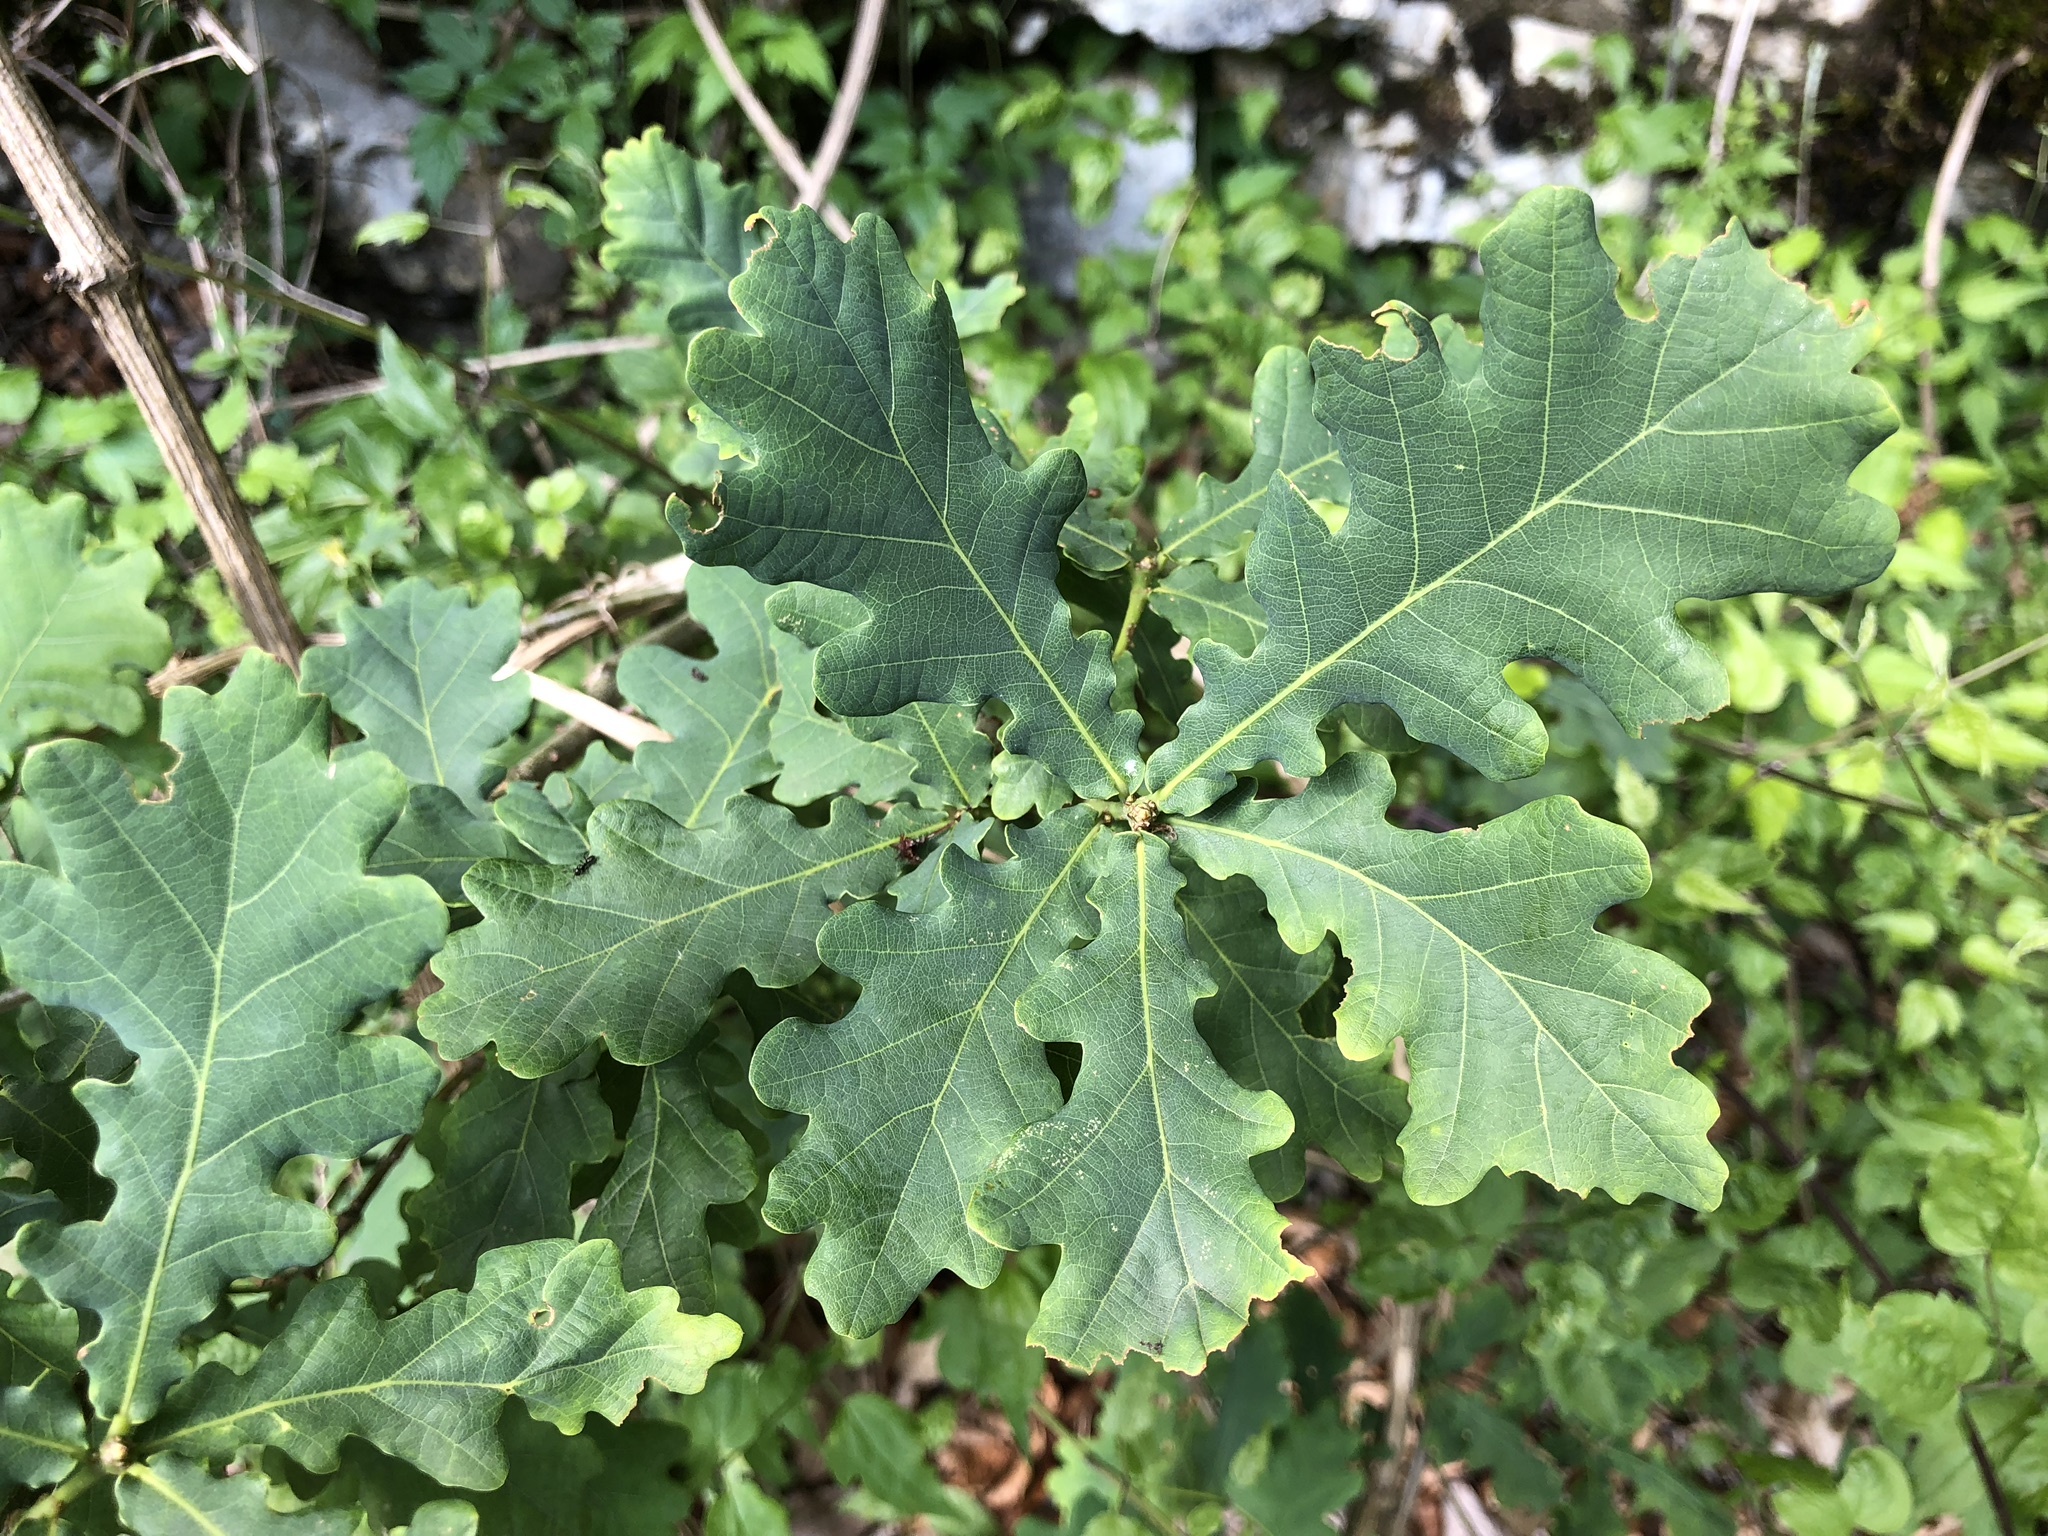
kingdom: Plantae
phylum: Tracheophyta
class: Magnoliopsida
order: Fagales
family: Fagaceae
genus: Quercus
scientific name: Quercus robur
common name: Pedunculate oak
